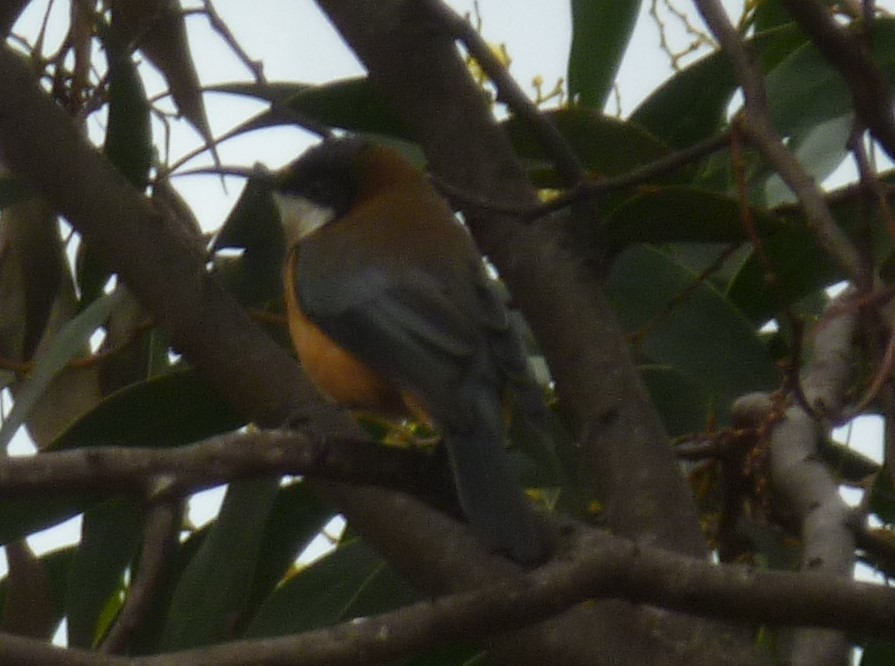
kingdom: Animalia
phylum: Chordata
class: Aves
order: Passeriformes
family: Meliphagidae
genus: Acanthorhynchus
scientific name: Acanthorhynchus tenuirostris
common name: Eastern spinebill
